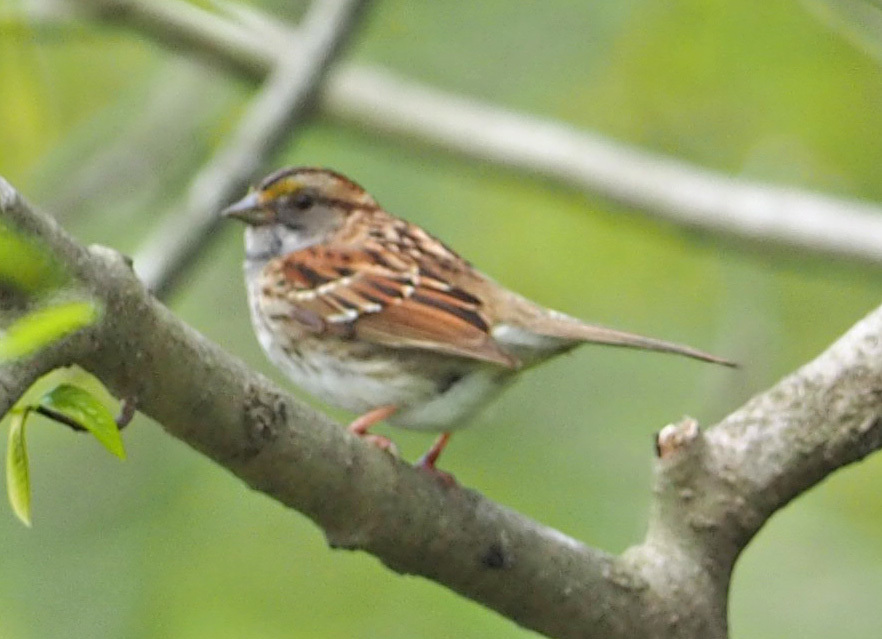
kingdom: Animalia
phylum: Chordata
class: Aves
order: Passeriformes
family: Passerellidae
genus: Zonotrichia
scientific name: Zonotrichia albicollis
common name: White-throated sparrow
